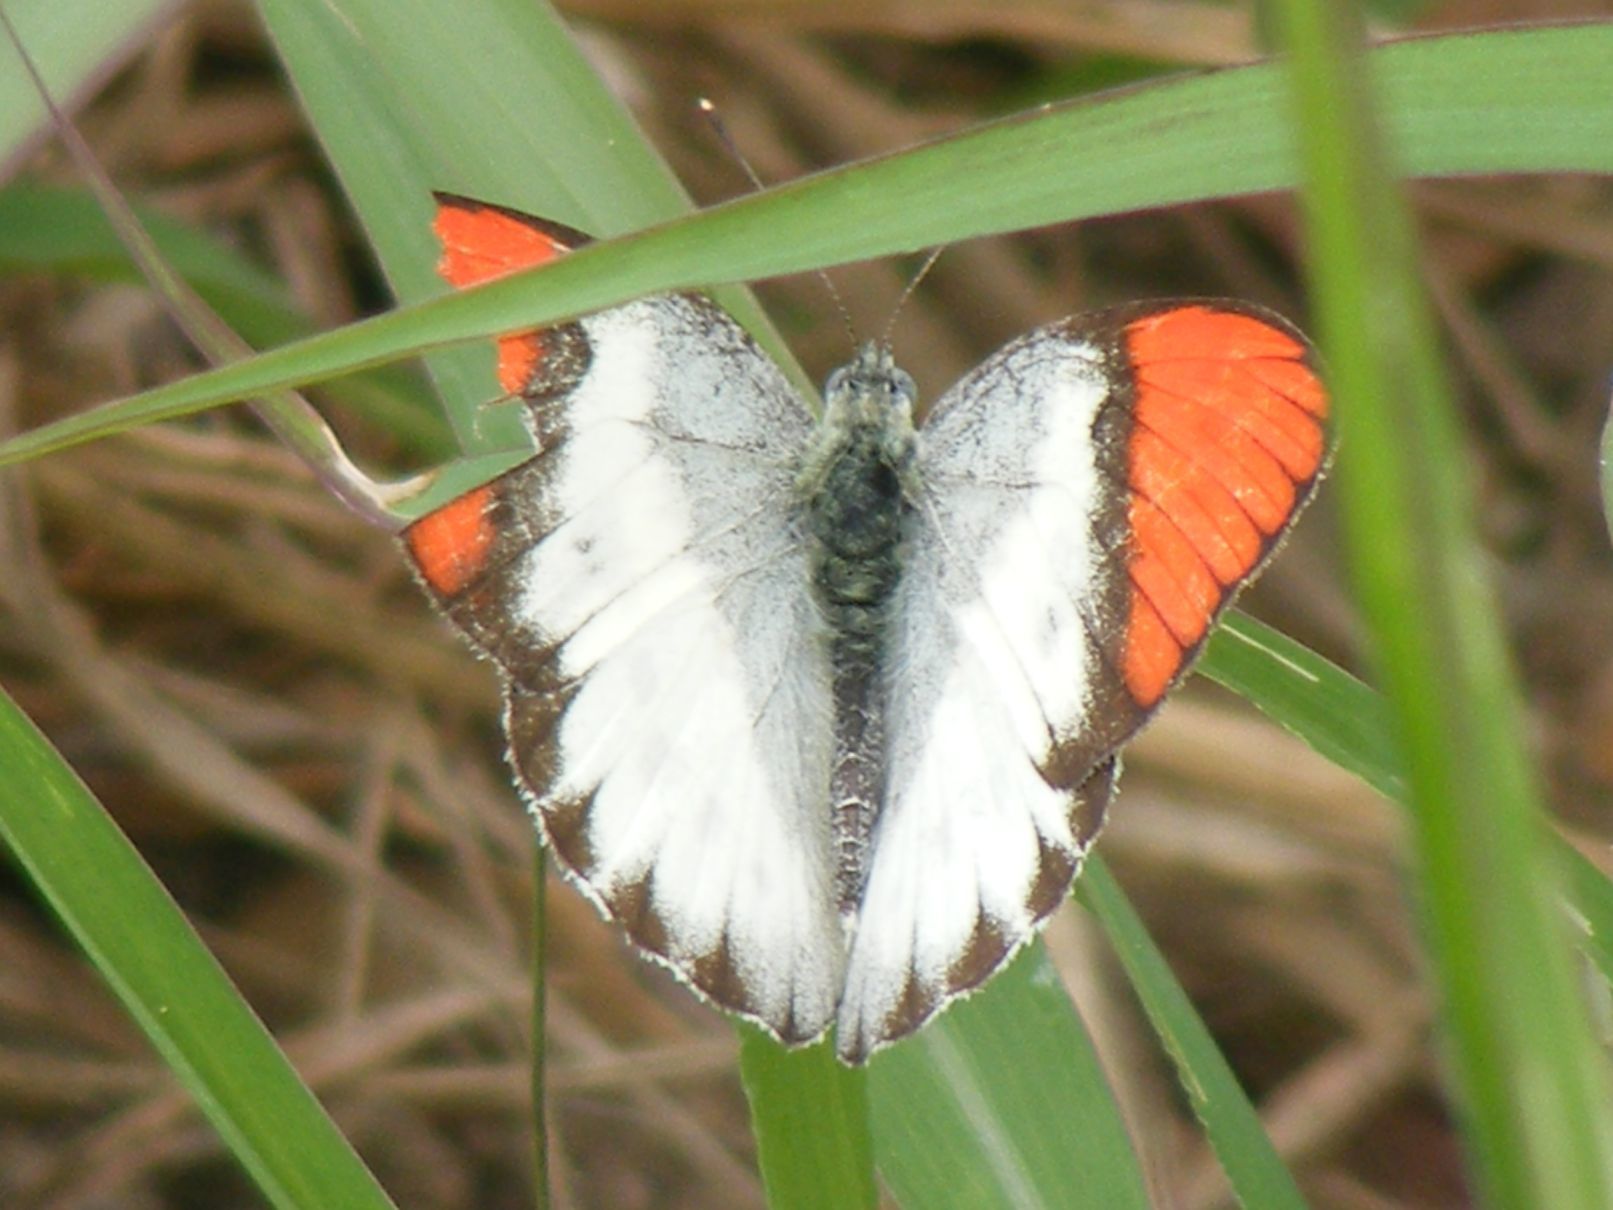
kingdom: Animalia
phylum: Arthropoda
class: Insecta
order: Lepidoptera
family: Pieridae
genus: Colotis
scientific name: Colotis annae
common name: Scarlet tip
